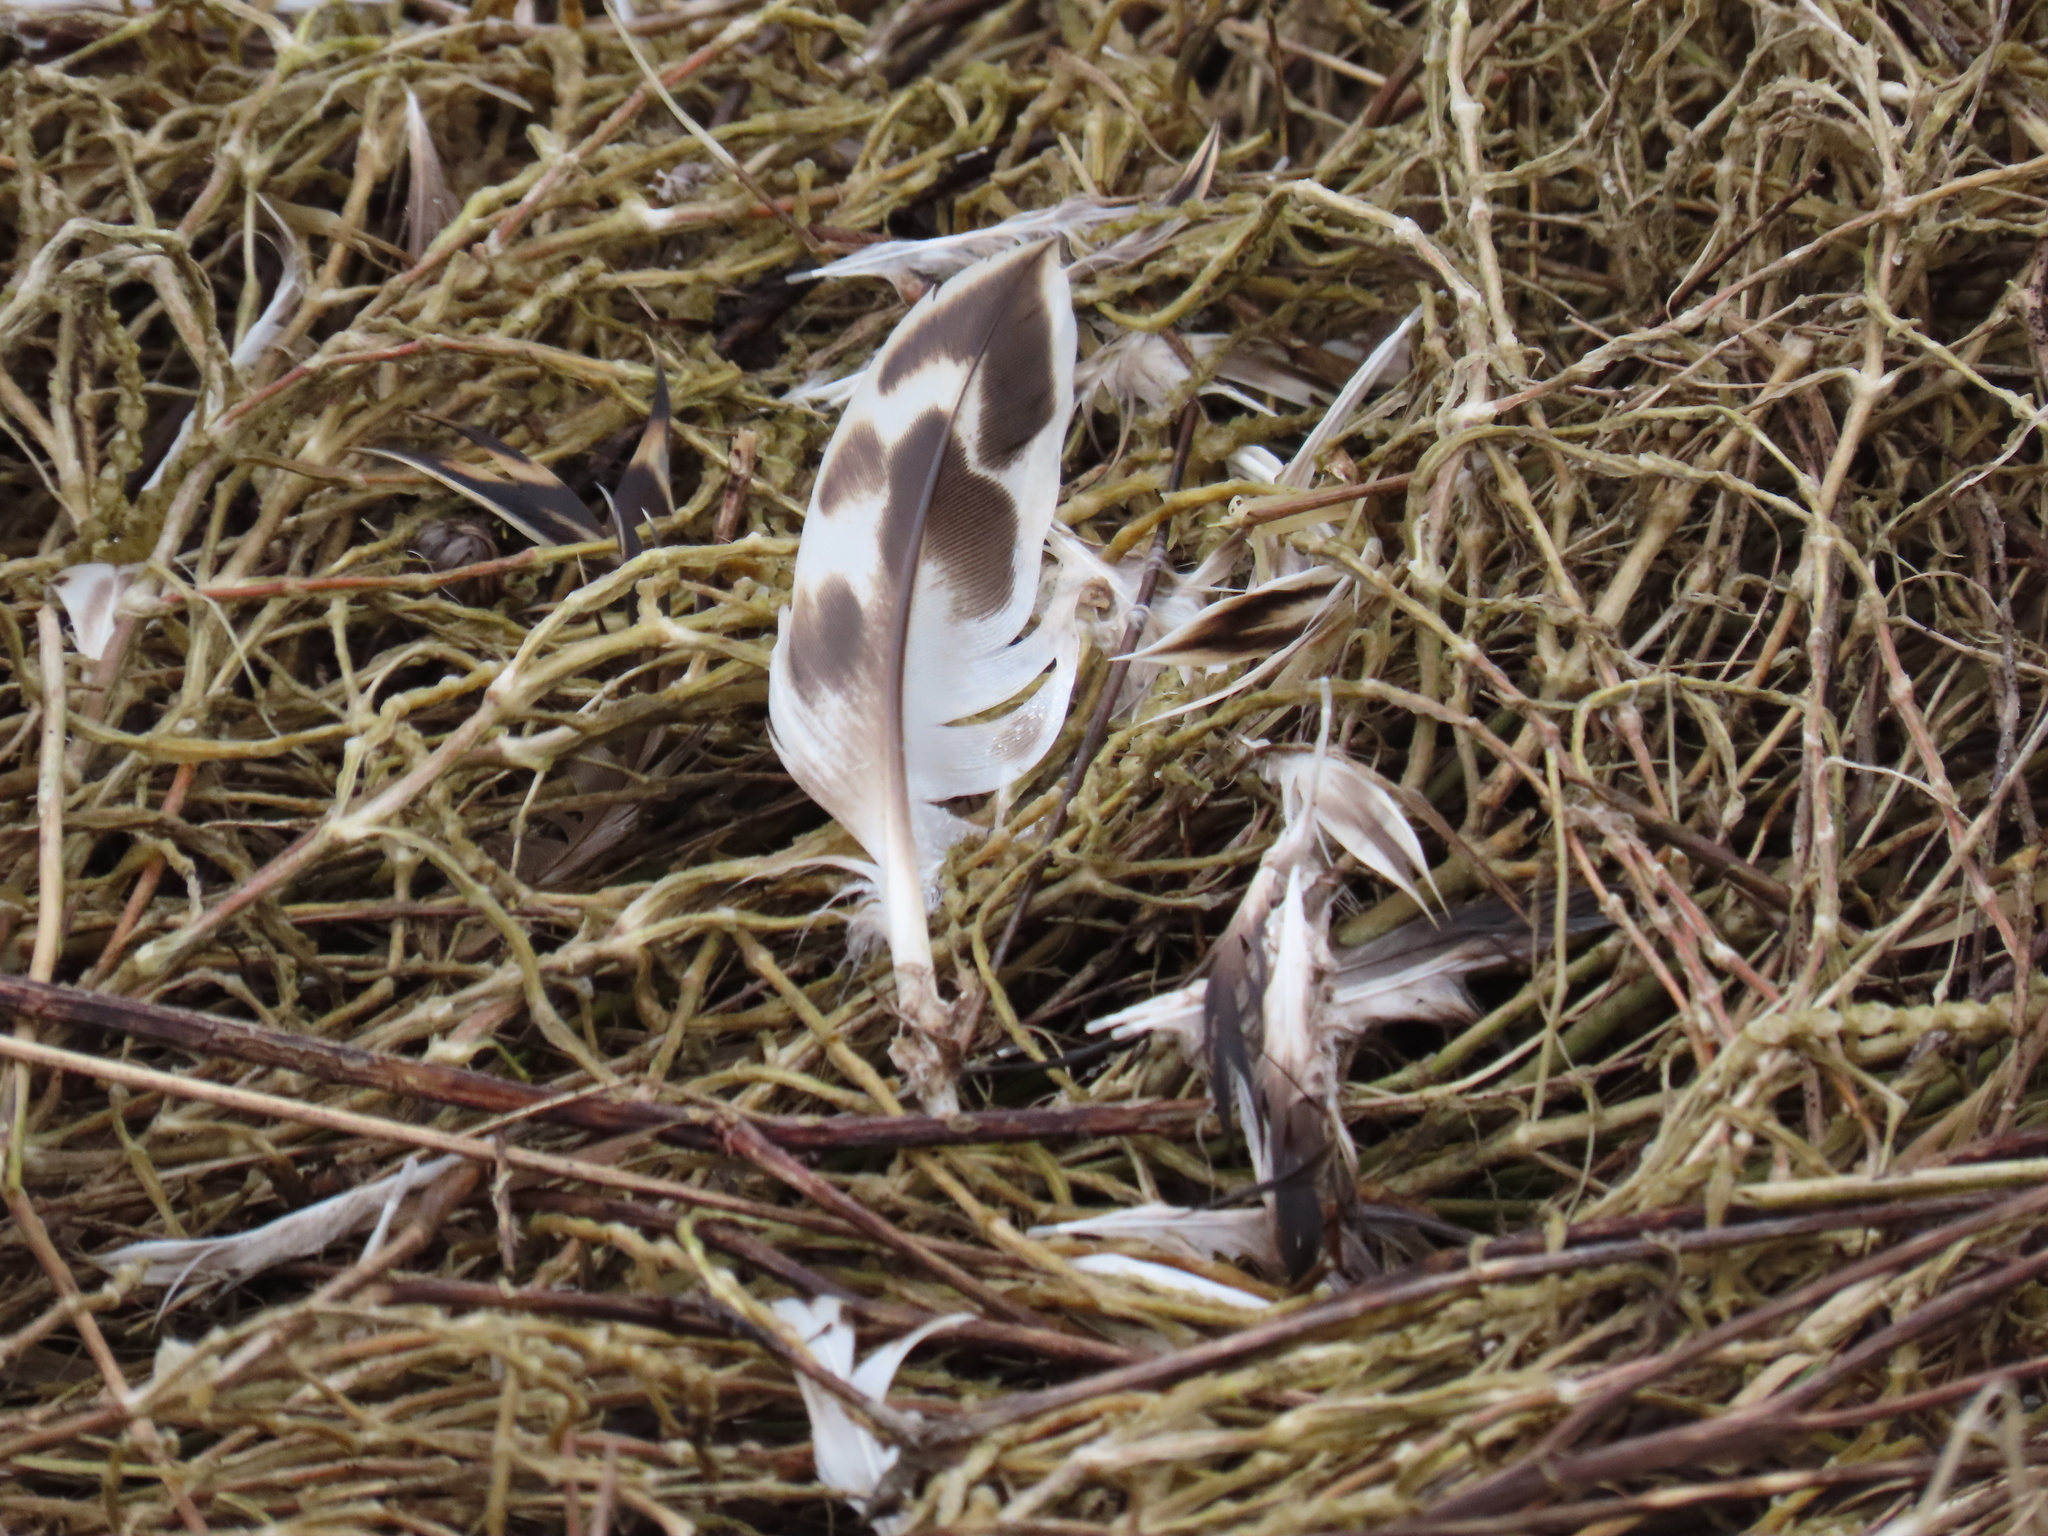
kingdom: Animalia
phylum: Chordata
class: Aves
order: Anseriformes
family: Anatidae
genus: Anas
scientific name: Anas platyrhynchos
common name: Mallard
